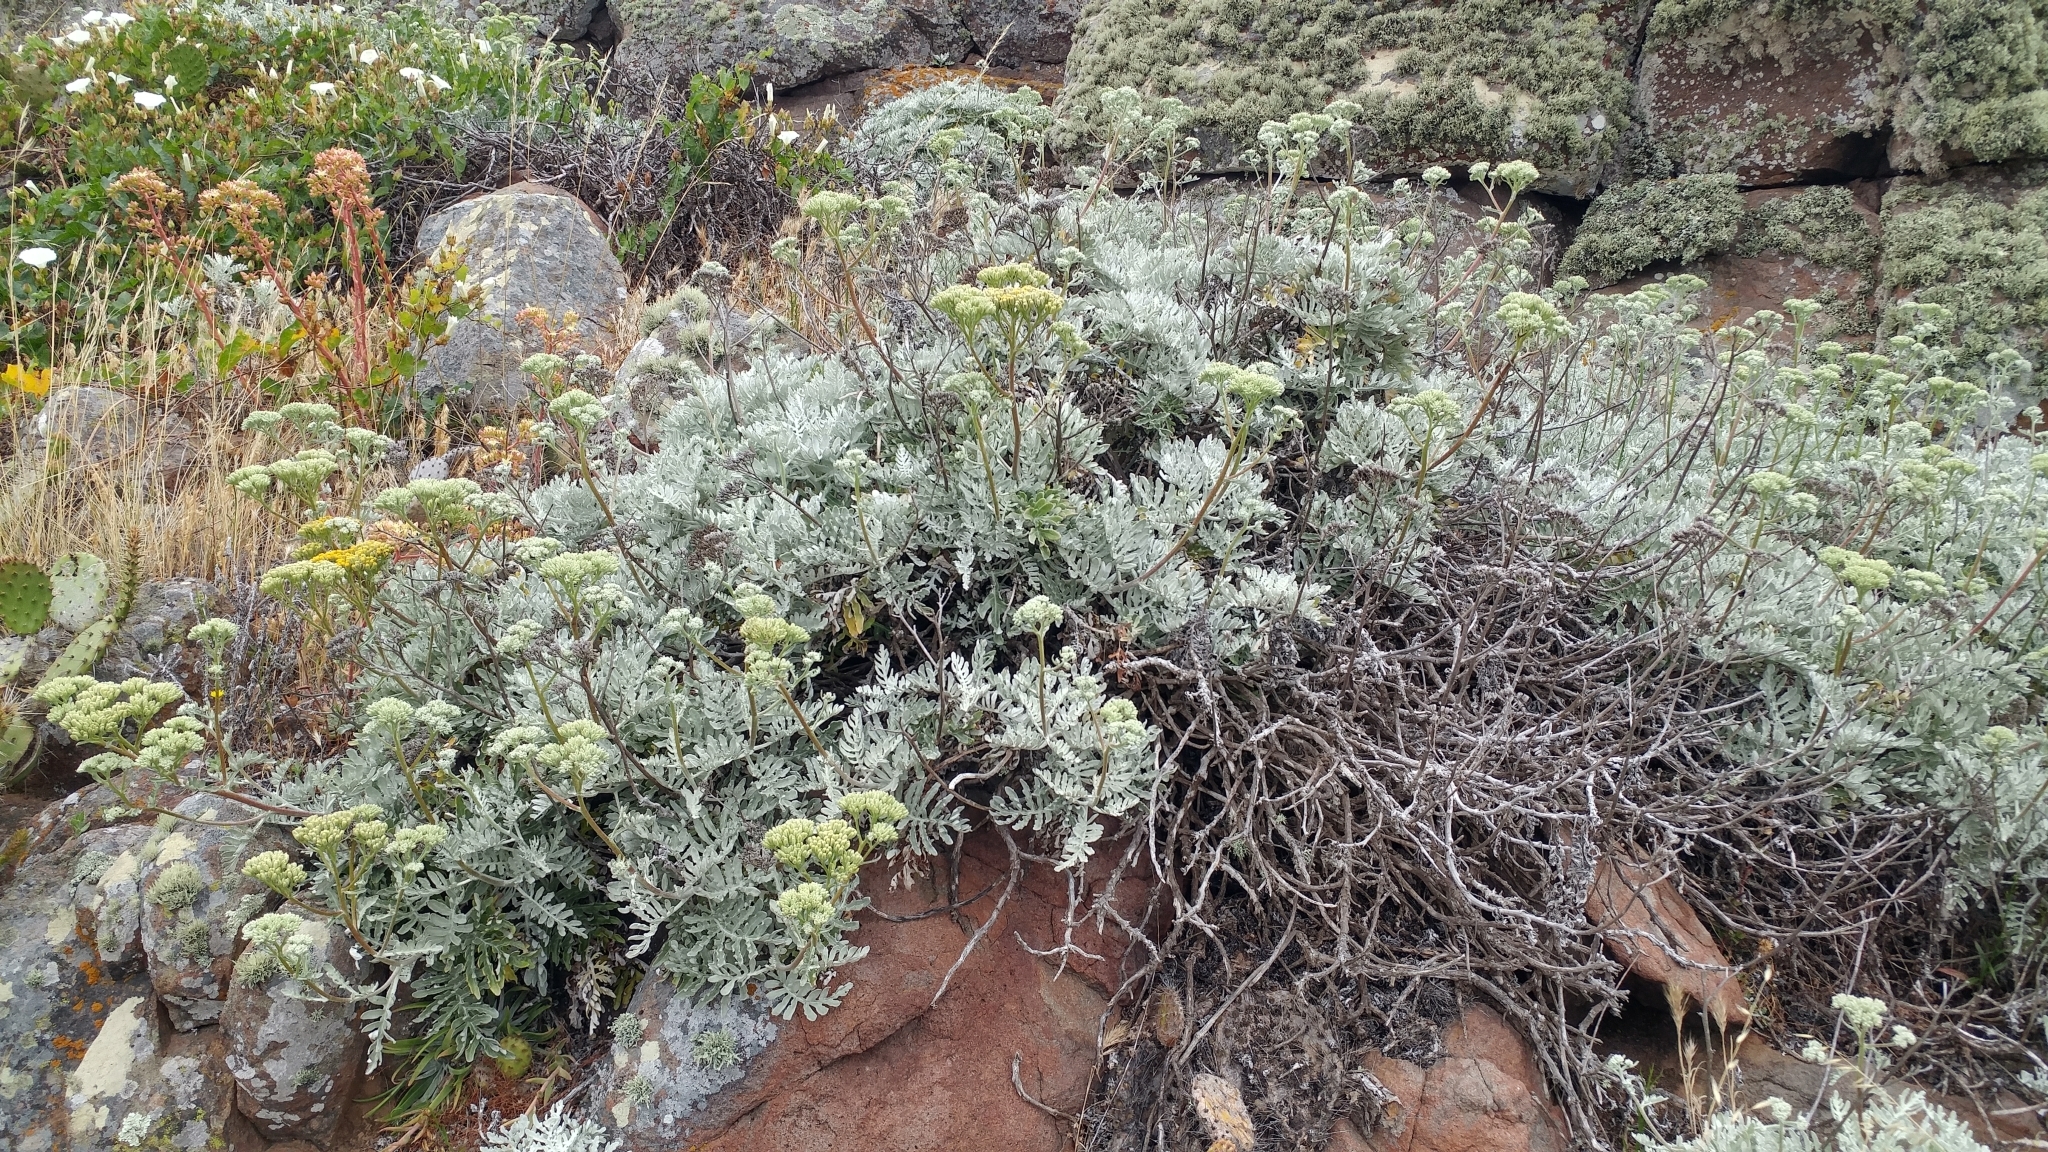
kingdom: Plantae
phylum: Tracheophyta
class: Magnoliopsida
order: Asterales
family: Asteraceae
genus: Constancea
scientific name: Constancea nevinii
